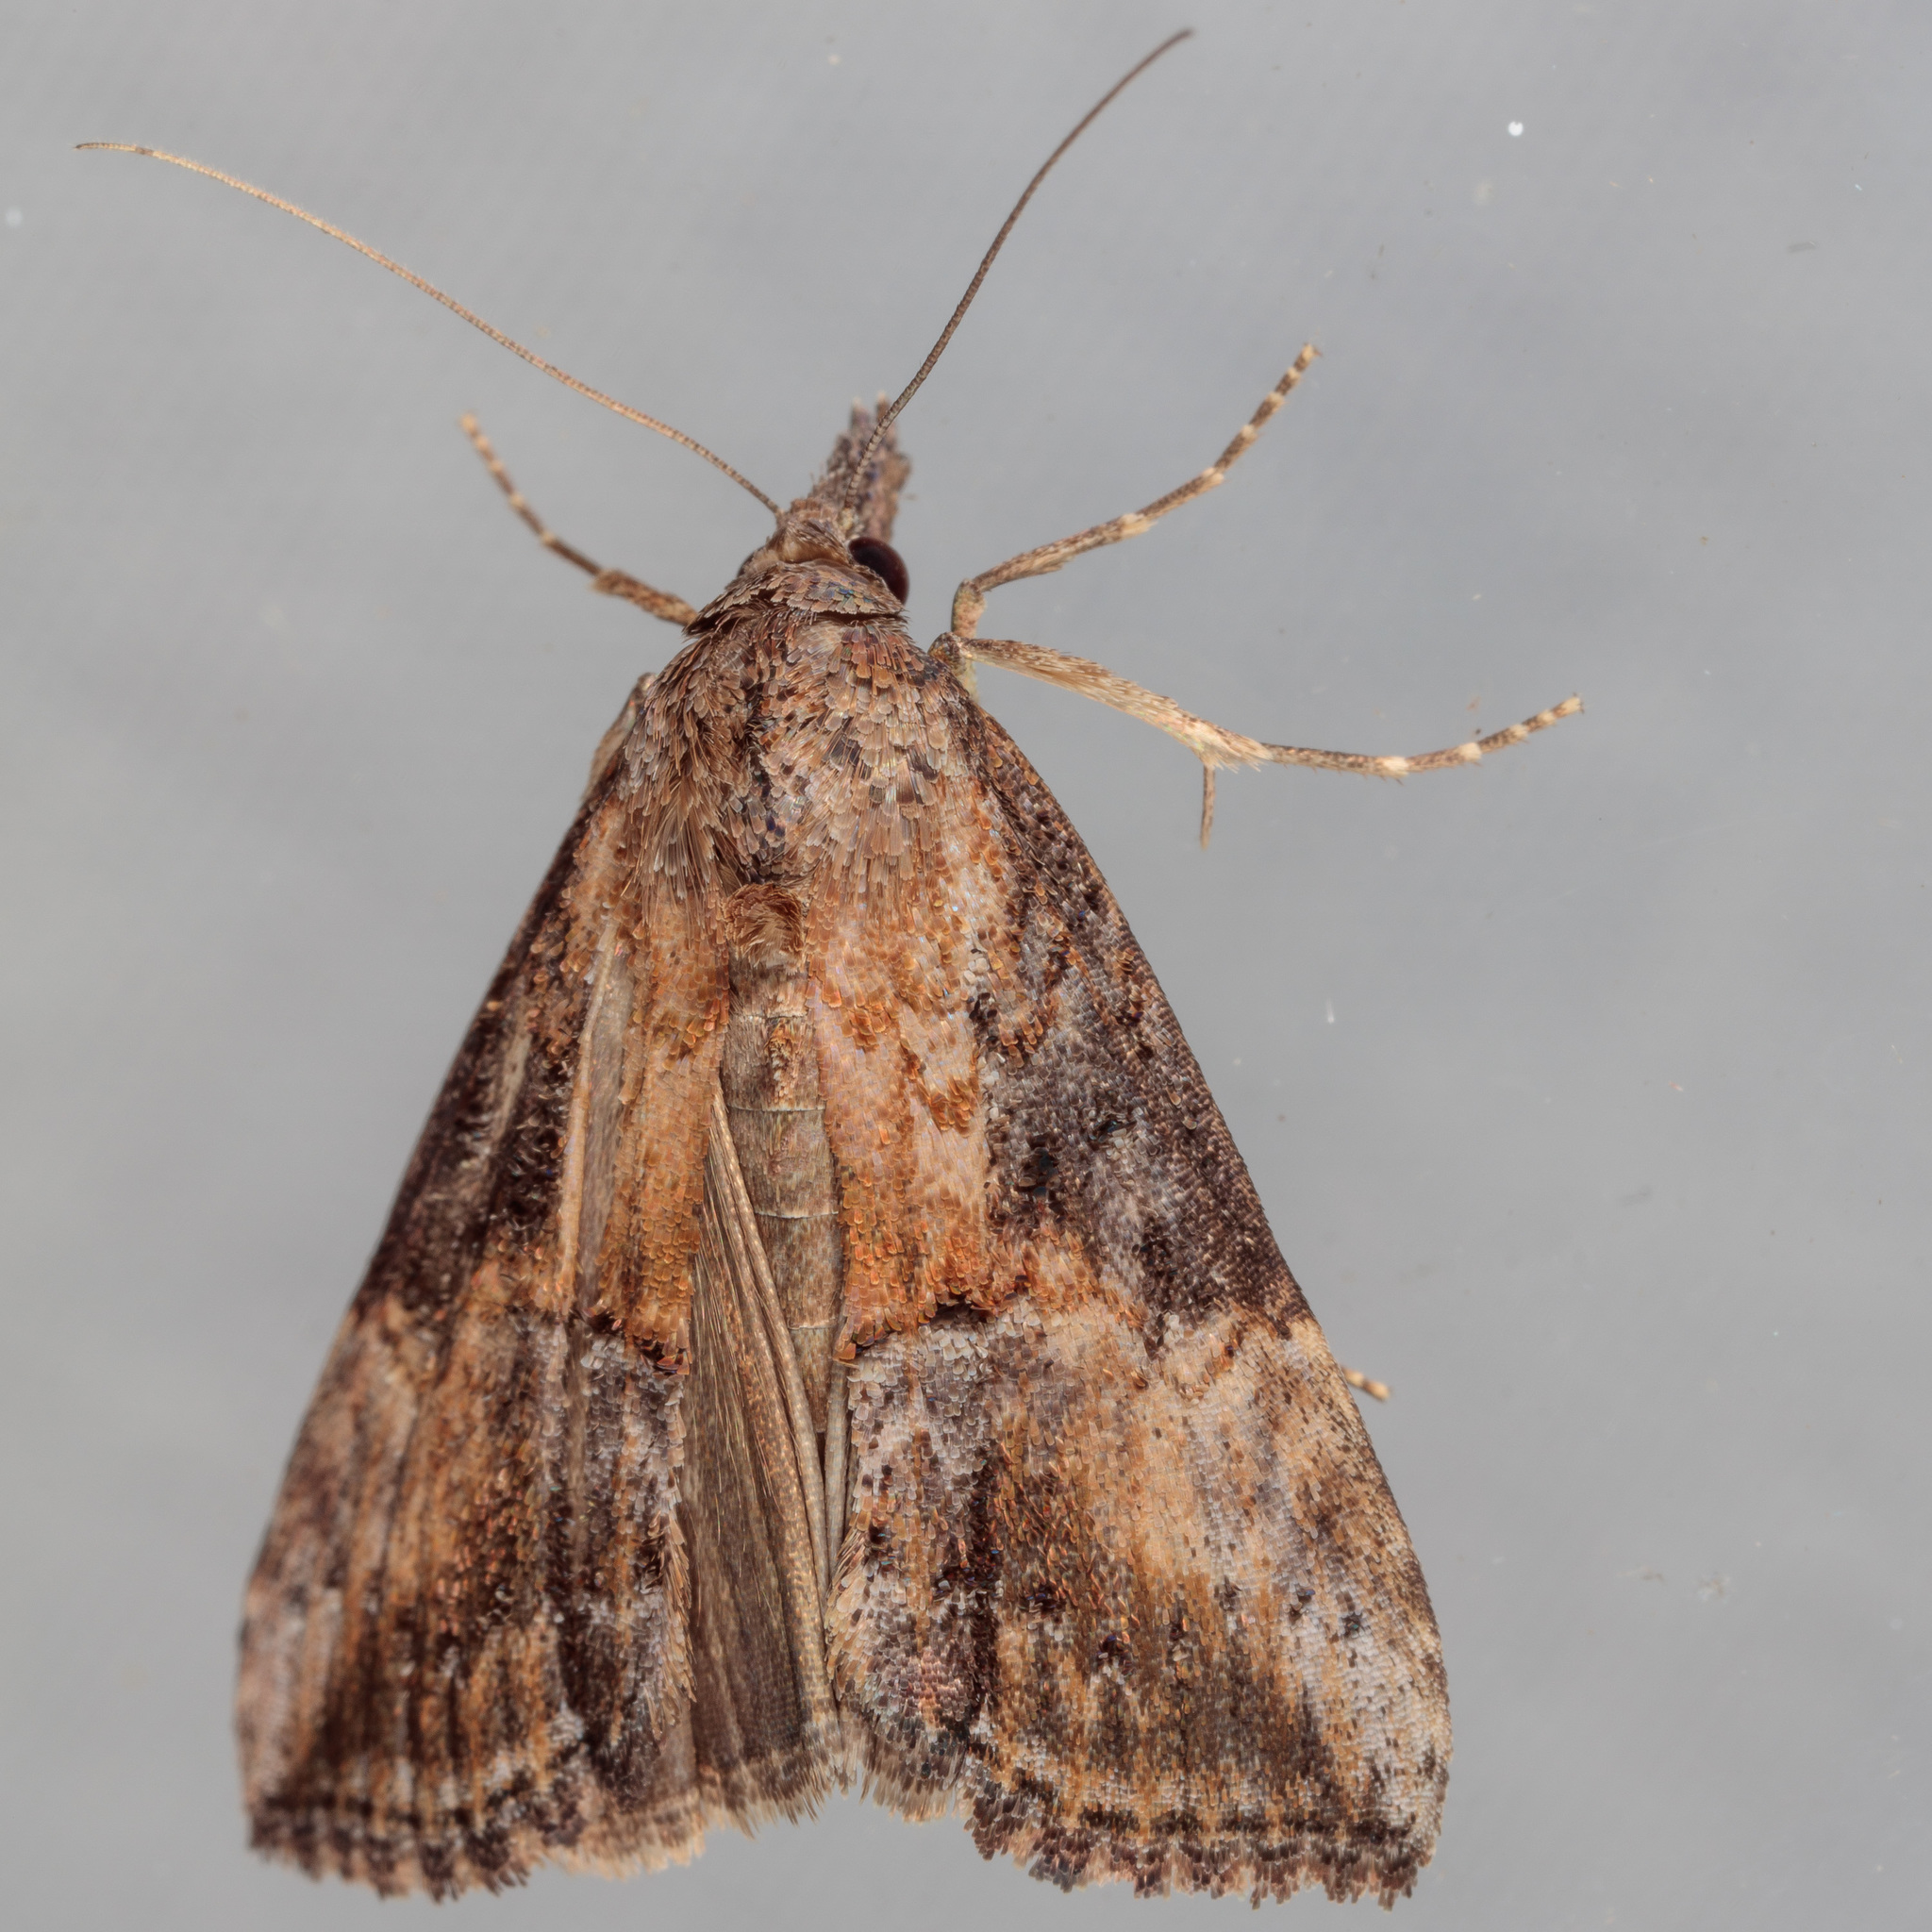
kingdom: Animalia
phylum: Arthropoda
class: Insecta
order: Lepidoptera
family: Erebidae
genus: Hypena
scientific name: Hypena scabra
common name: Green cloverworm
